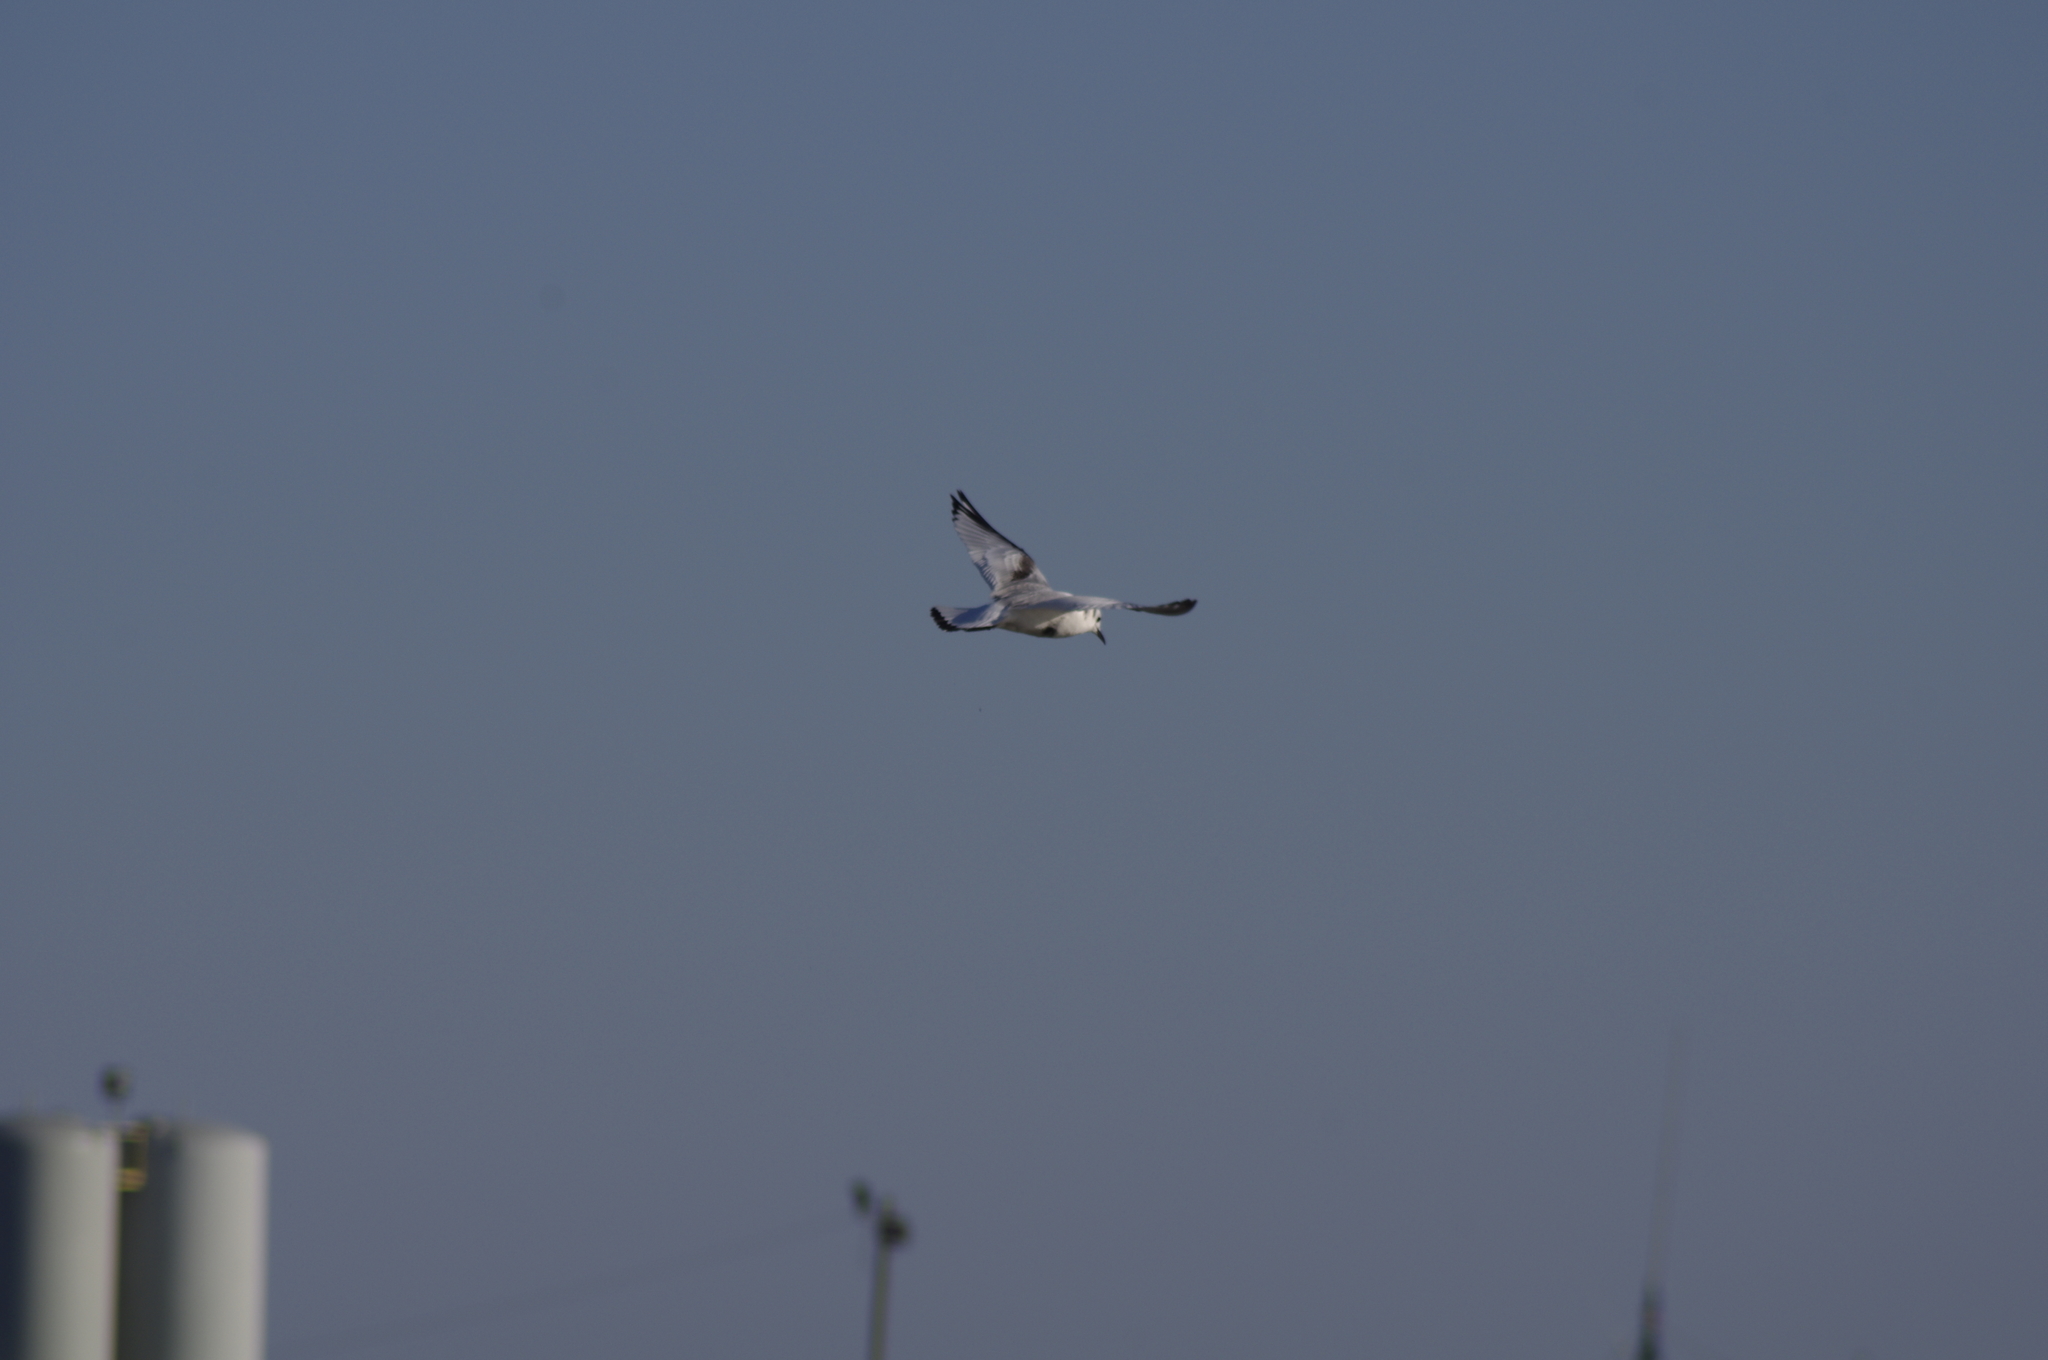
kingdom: Animalia
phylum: Chordata
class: Aves
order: Charadriiformes
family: Laridae
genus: Rissa
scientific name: Rissa tridactyla
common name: Black-legged kittiwake
